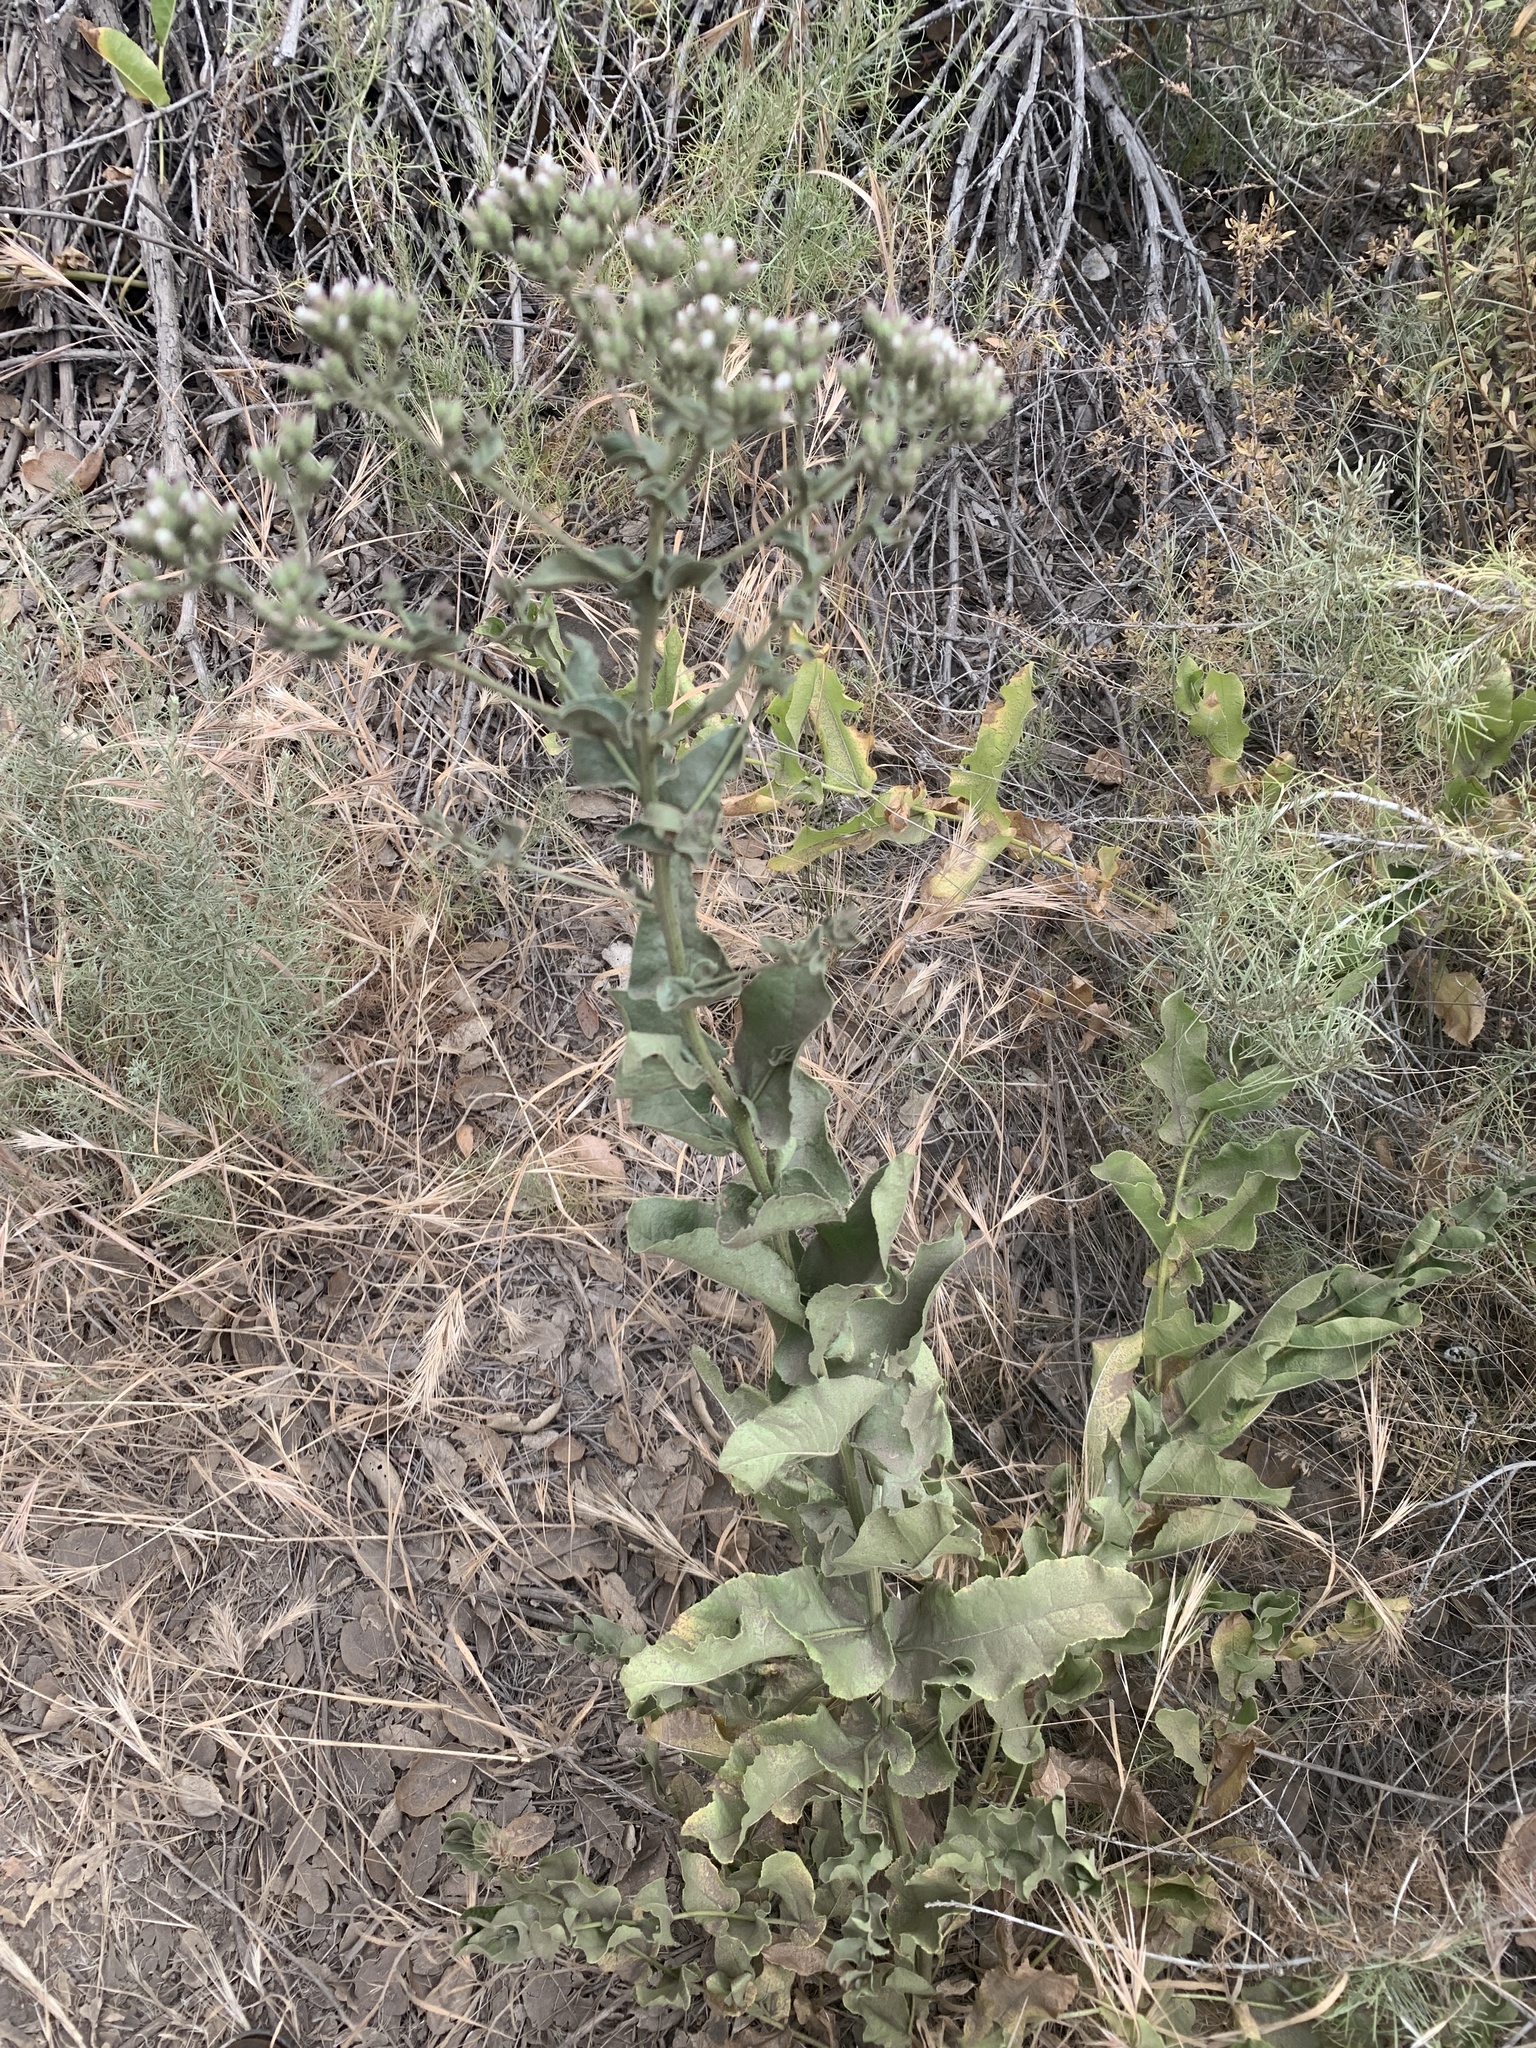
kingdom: Plantae
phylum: Tracheophyta
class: Magnoliopsida
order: Asterales
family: Asteraceae
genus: Acourtia
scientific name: Acourtia microcephala
